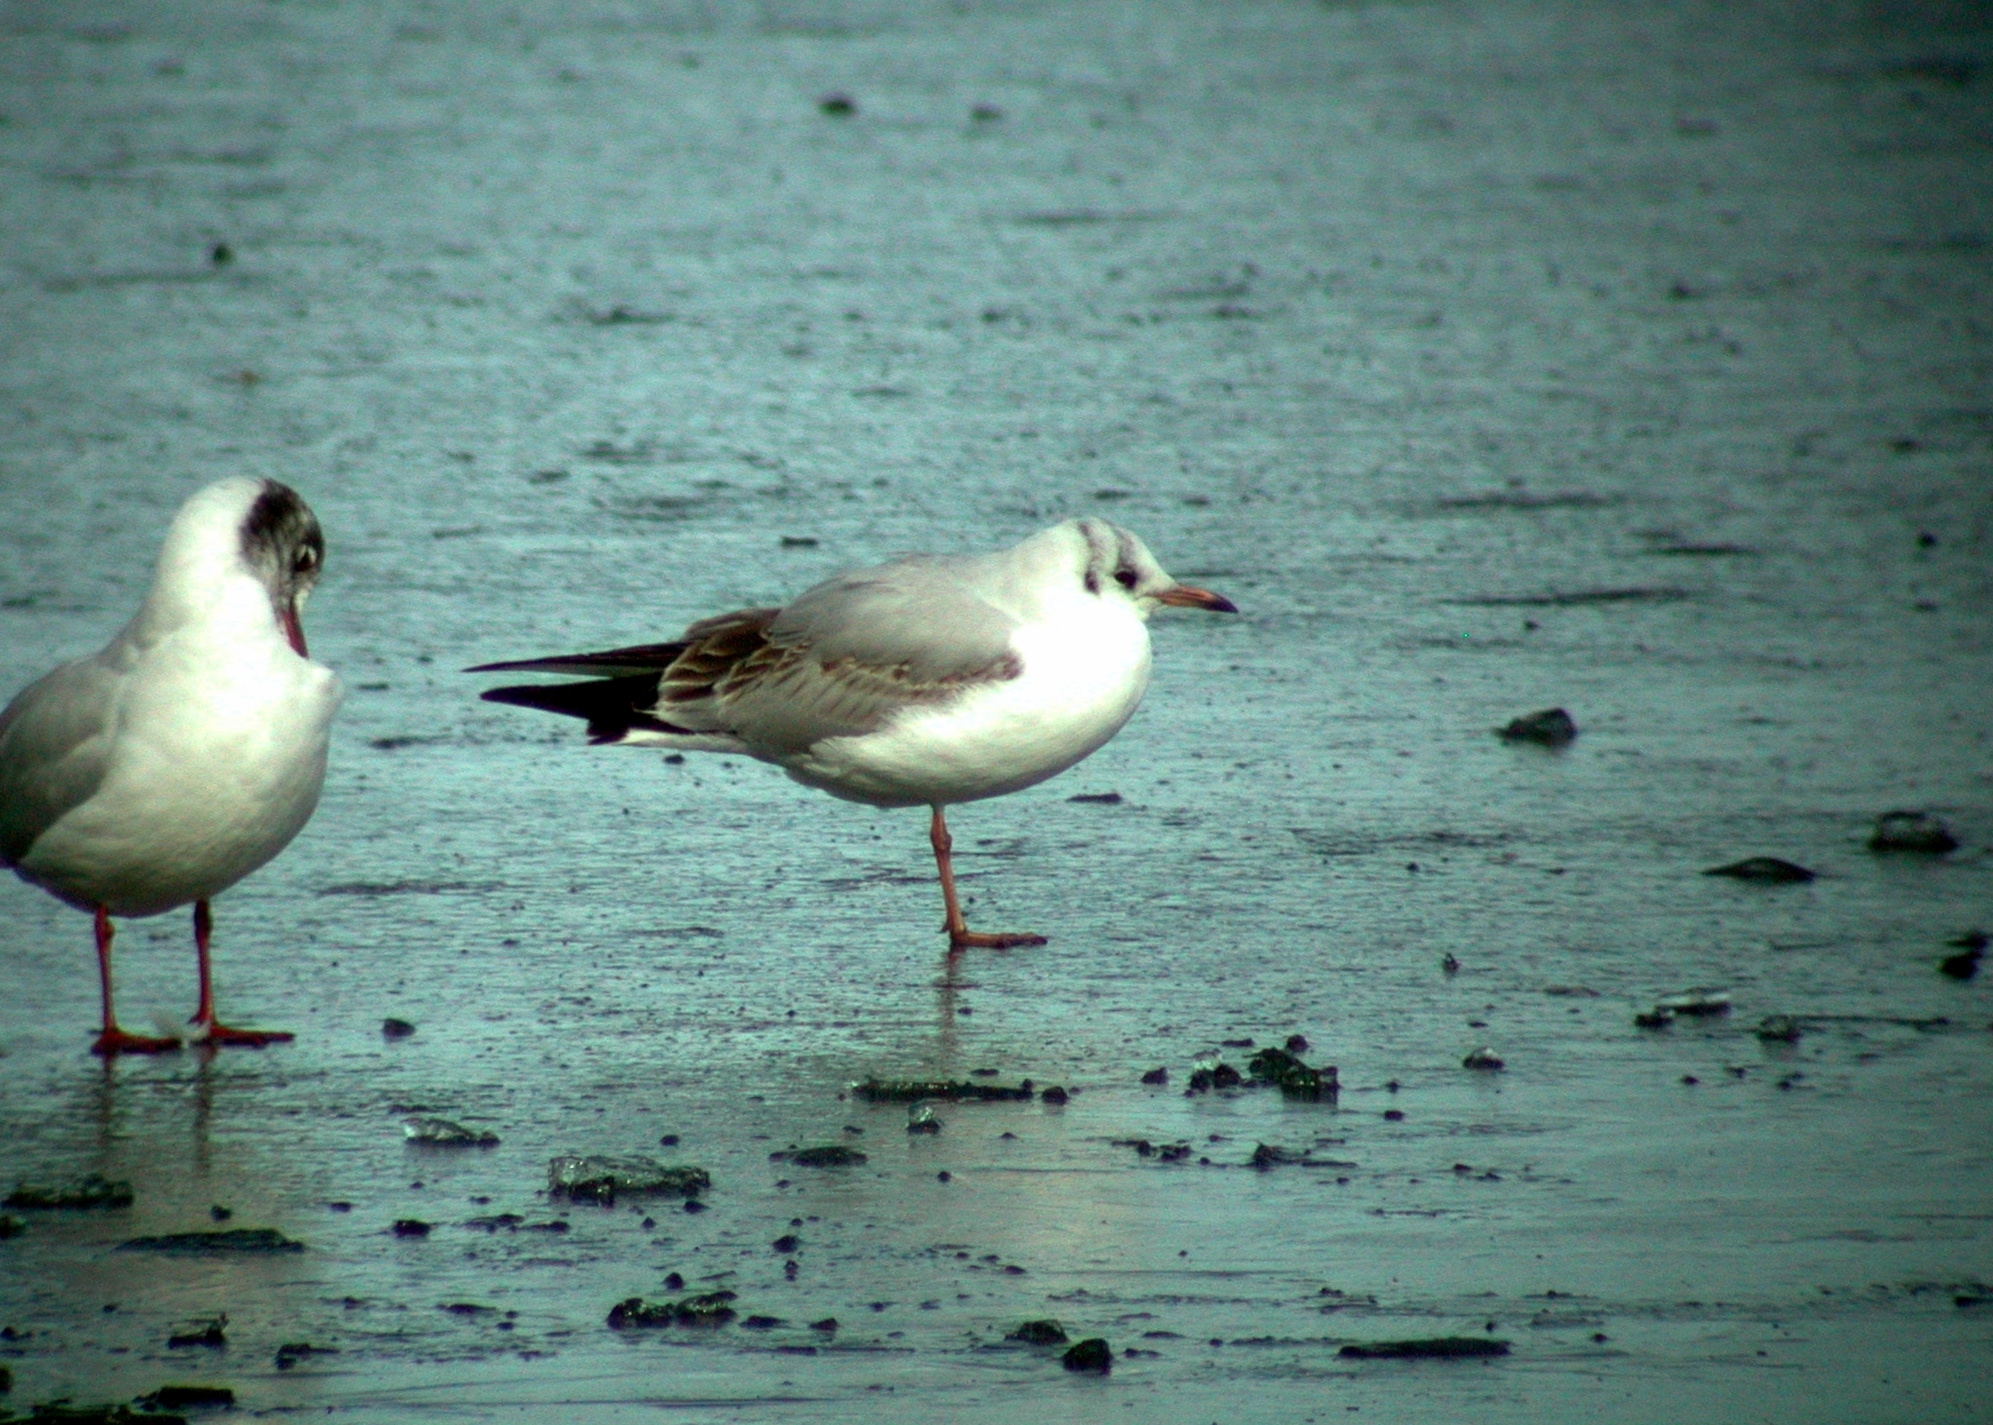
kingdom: Animalia
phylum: Chordata
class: Aves
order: Charadriiformes
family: Laridae
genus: Chroicocephalus
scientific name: Chroicocephalus ridibundus
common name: Black-headed gull
